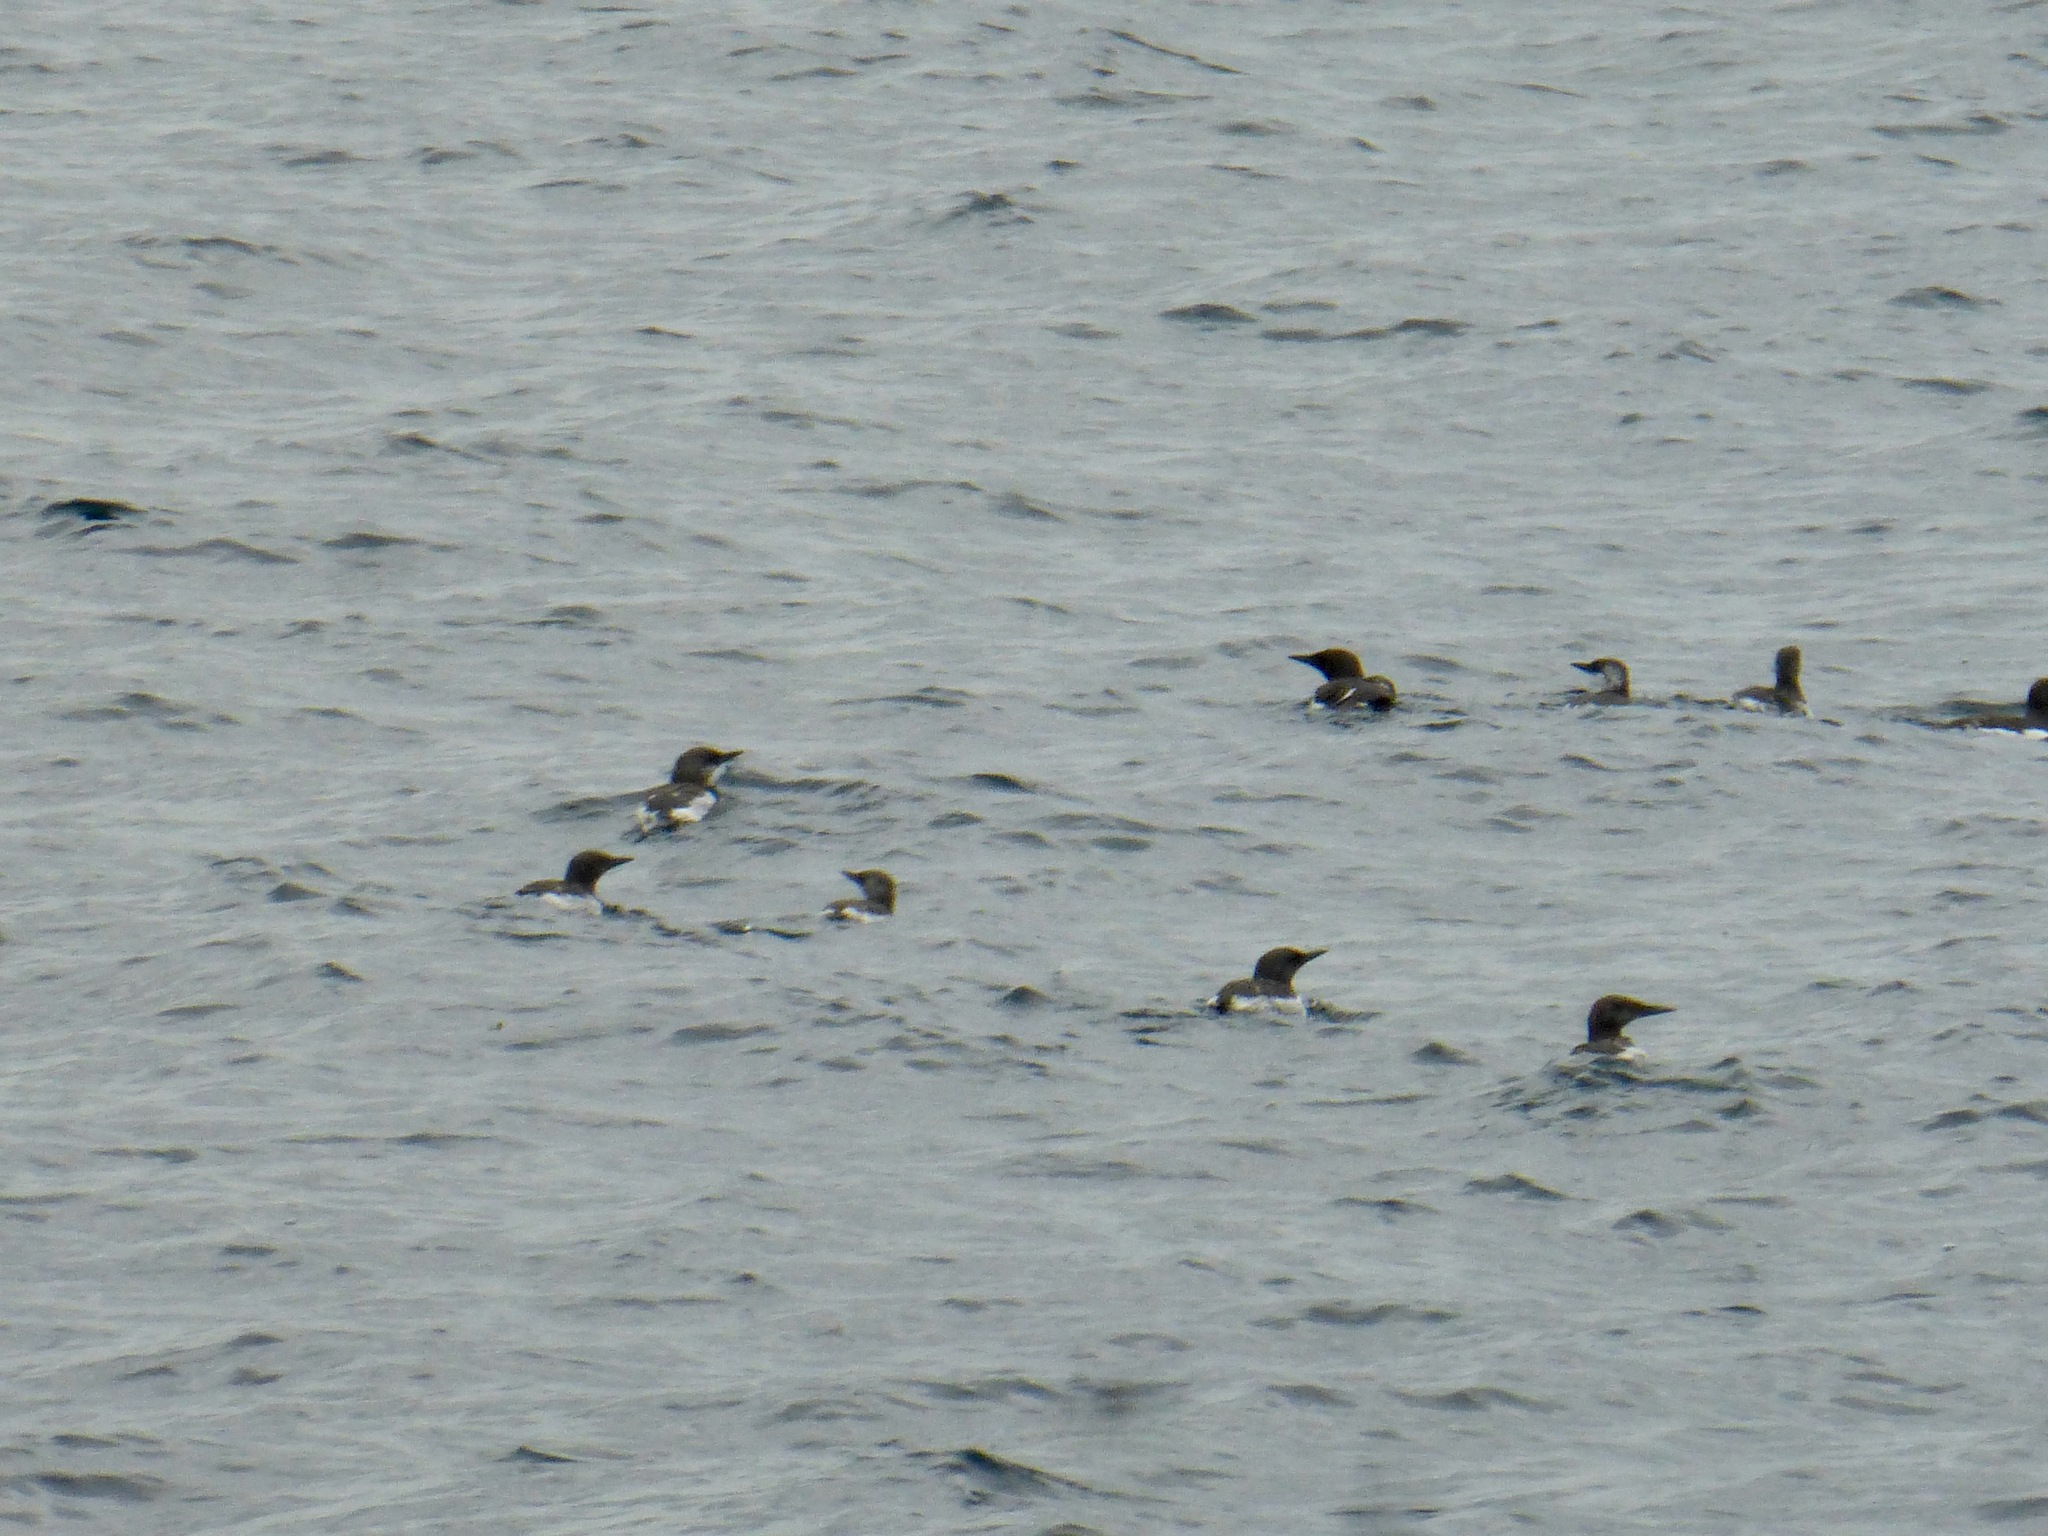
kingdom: Animalia
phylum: Chordata
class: Aves
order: Charadriiformes
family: Alcidae
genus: Uria
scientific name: Uria aalge
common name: Common murre
